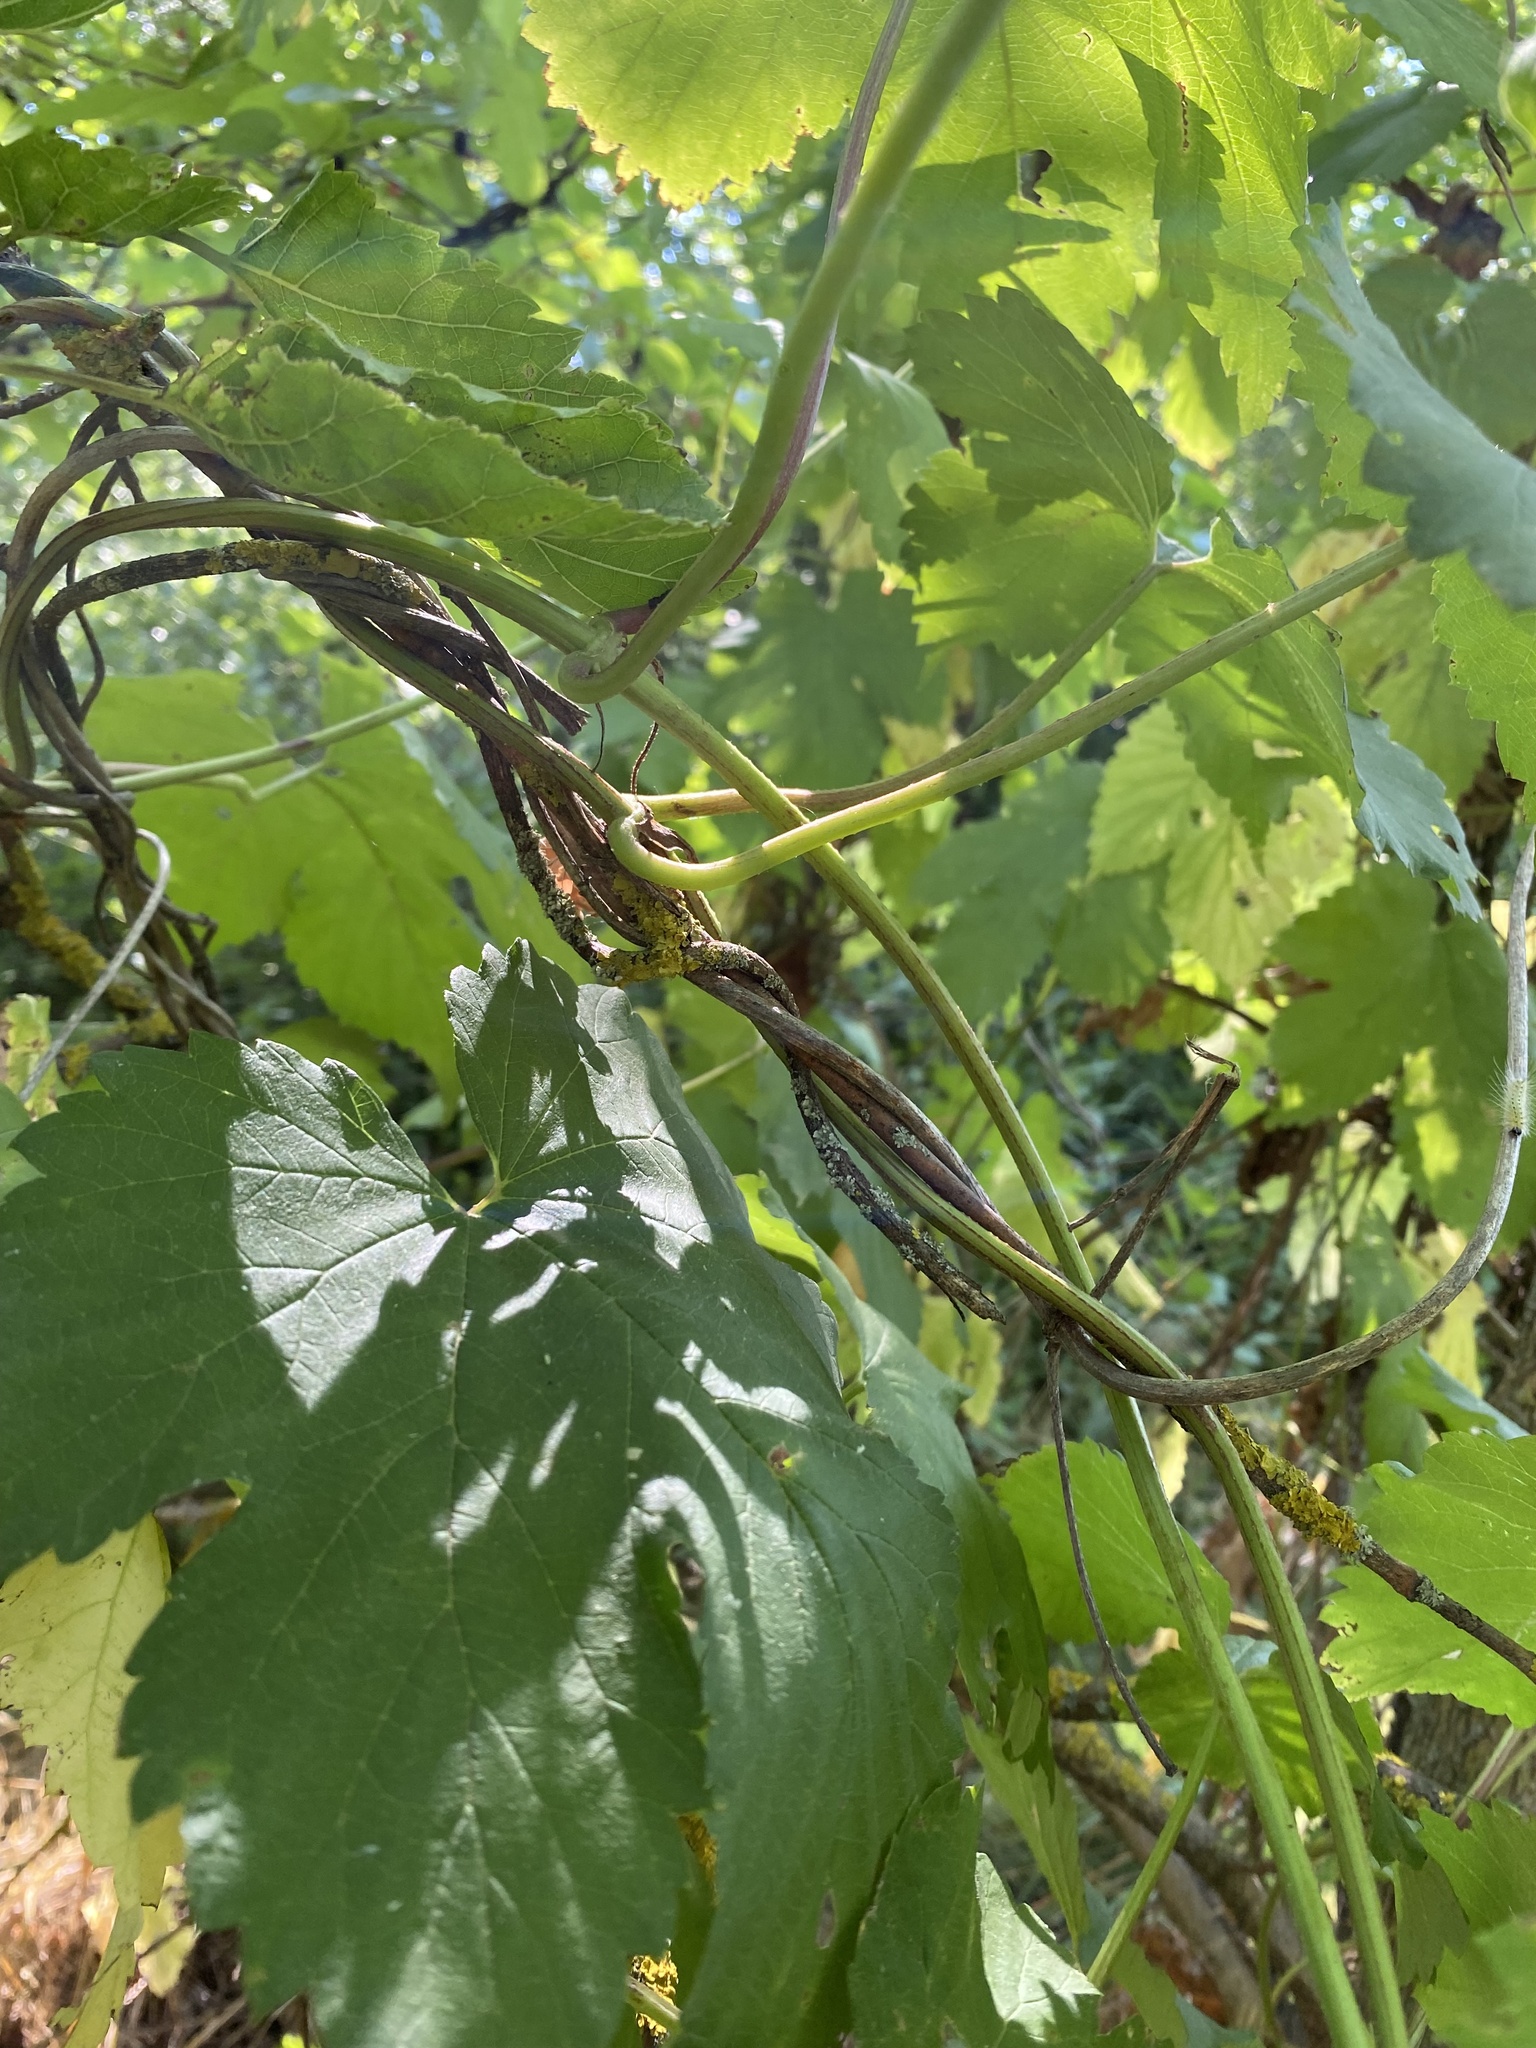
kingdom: Plantae
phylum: Tracheophyta
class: Magnoliopsida
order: Rosales
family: Cannabaceae
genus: Humulus
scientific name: Humulus lupulus
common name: Hop
